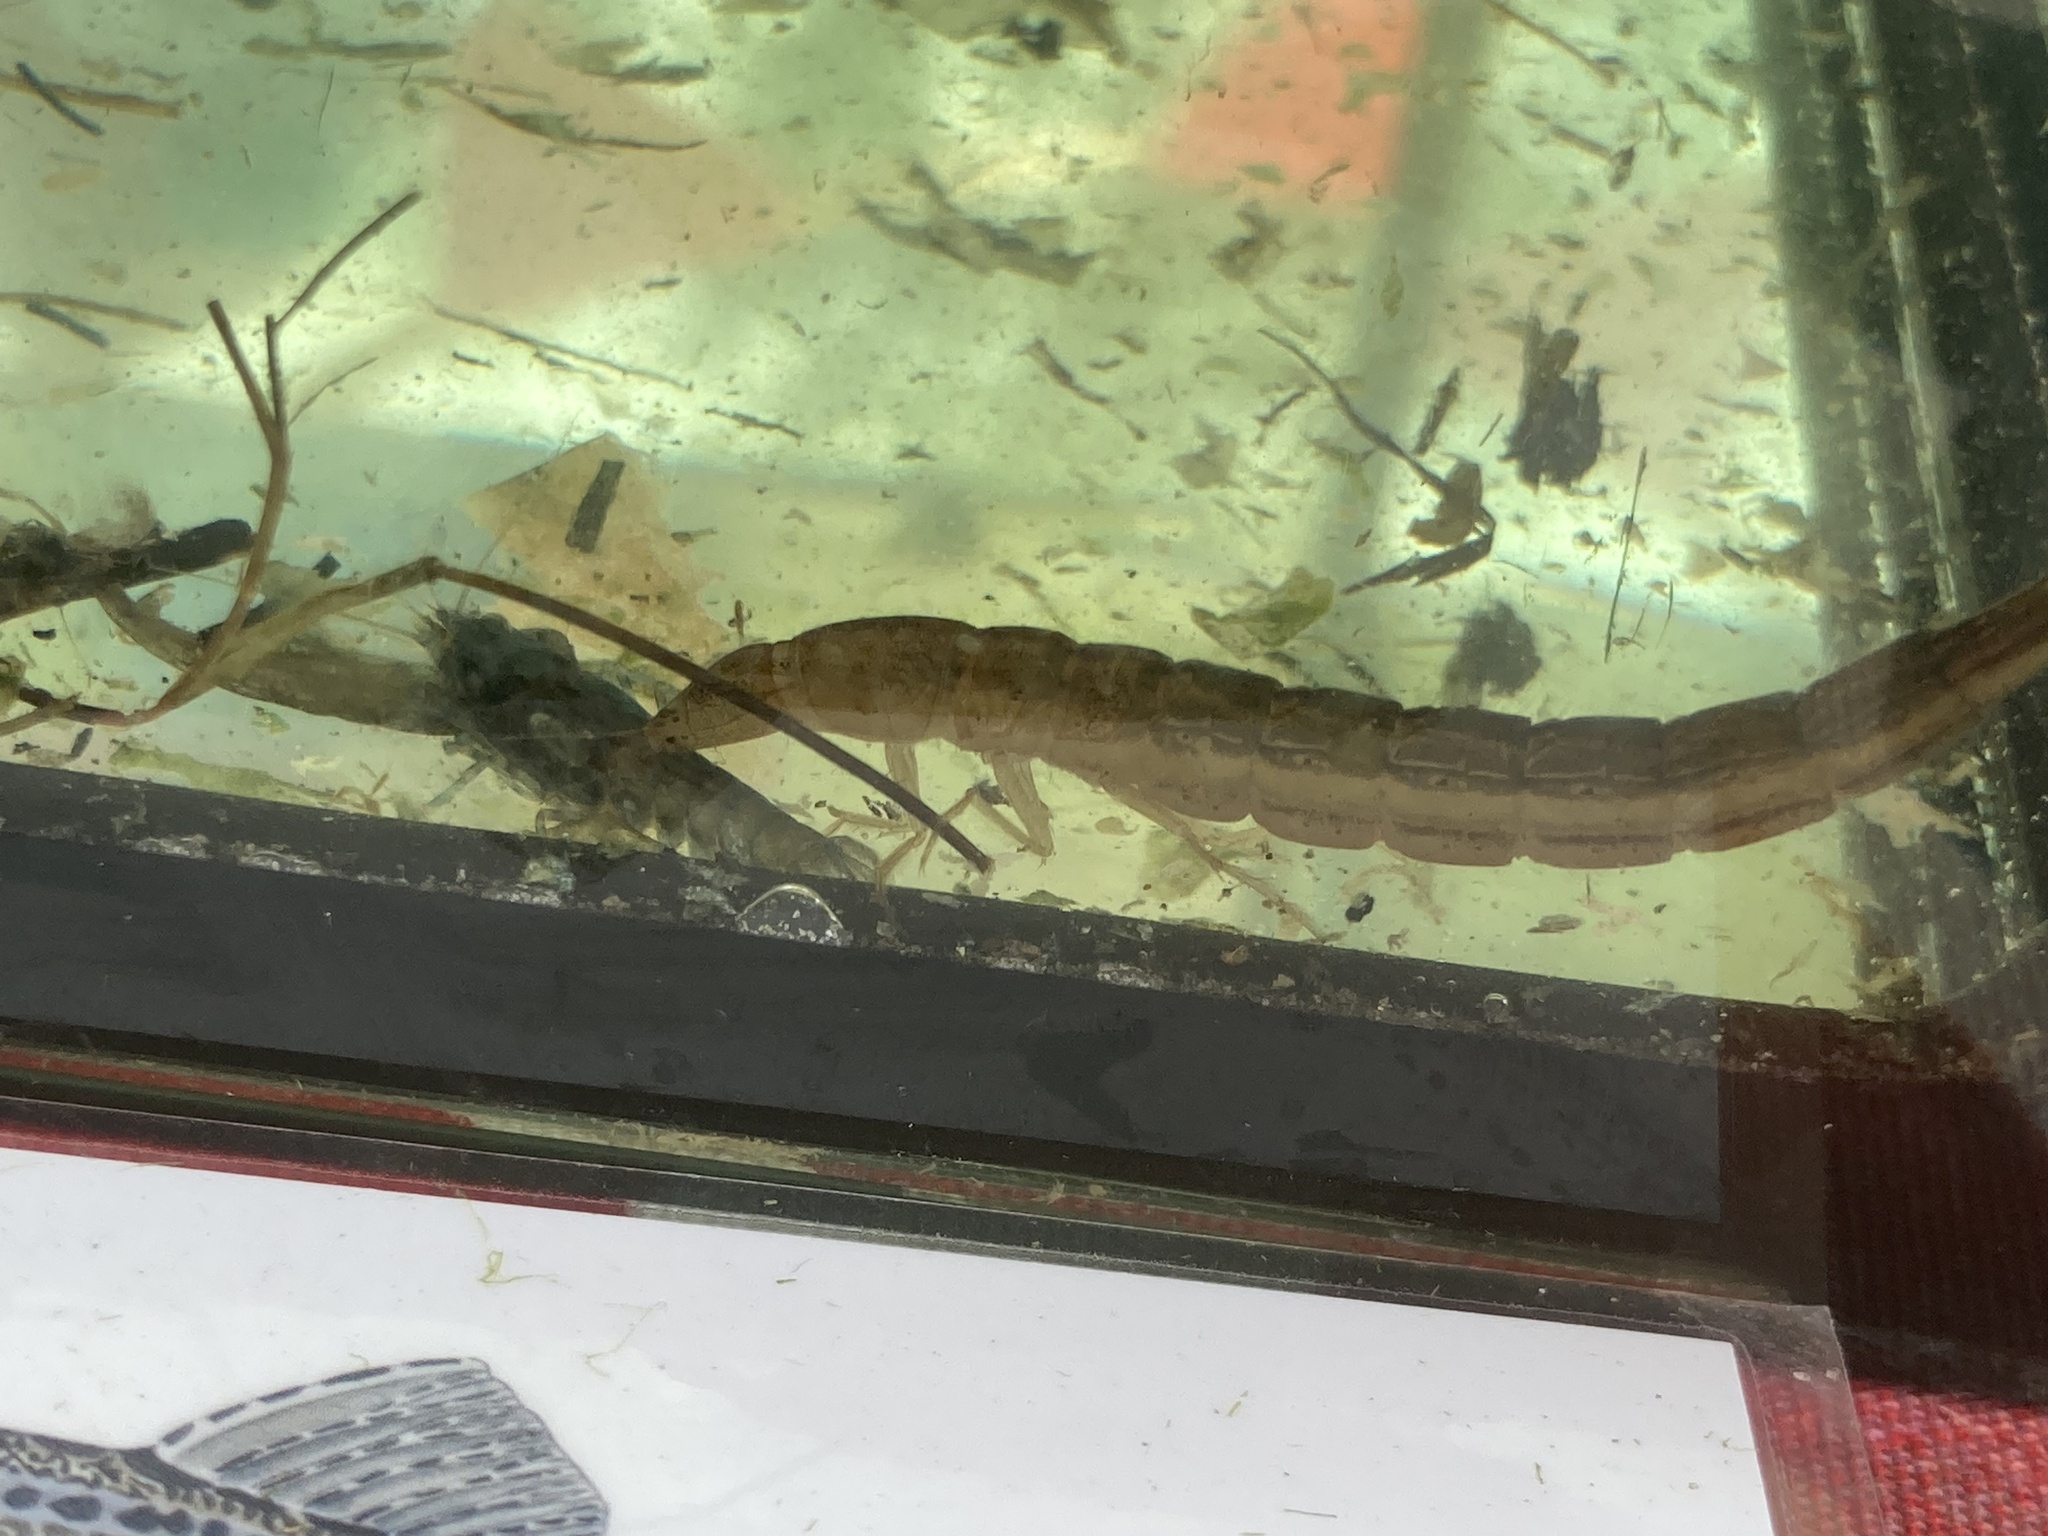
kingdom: Animalia
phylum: Arthropoda
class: Insecta
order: Coleoptera
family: Dytiscidae
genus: Cybister
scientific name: Cybister lateralimarginalis
